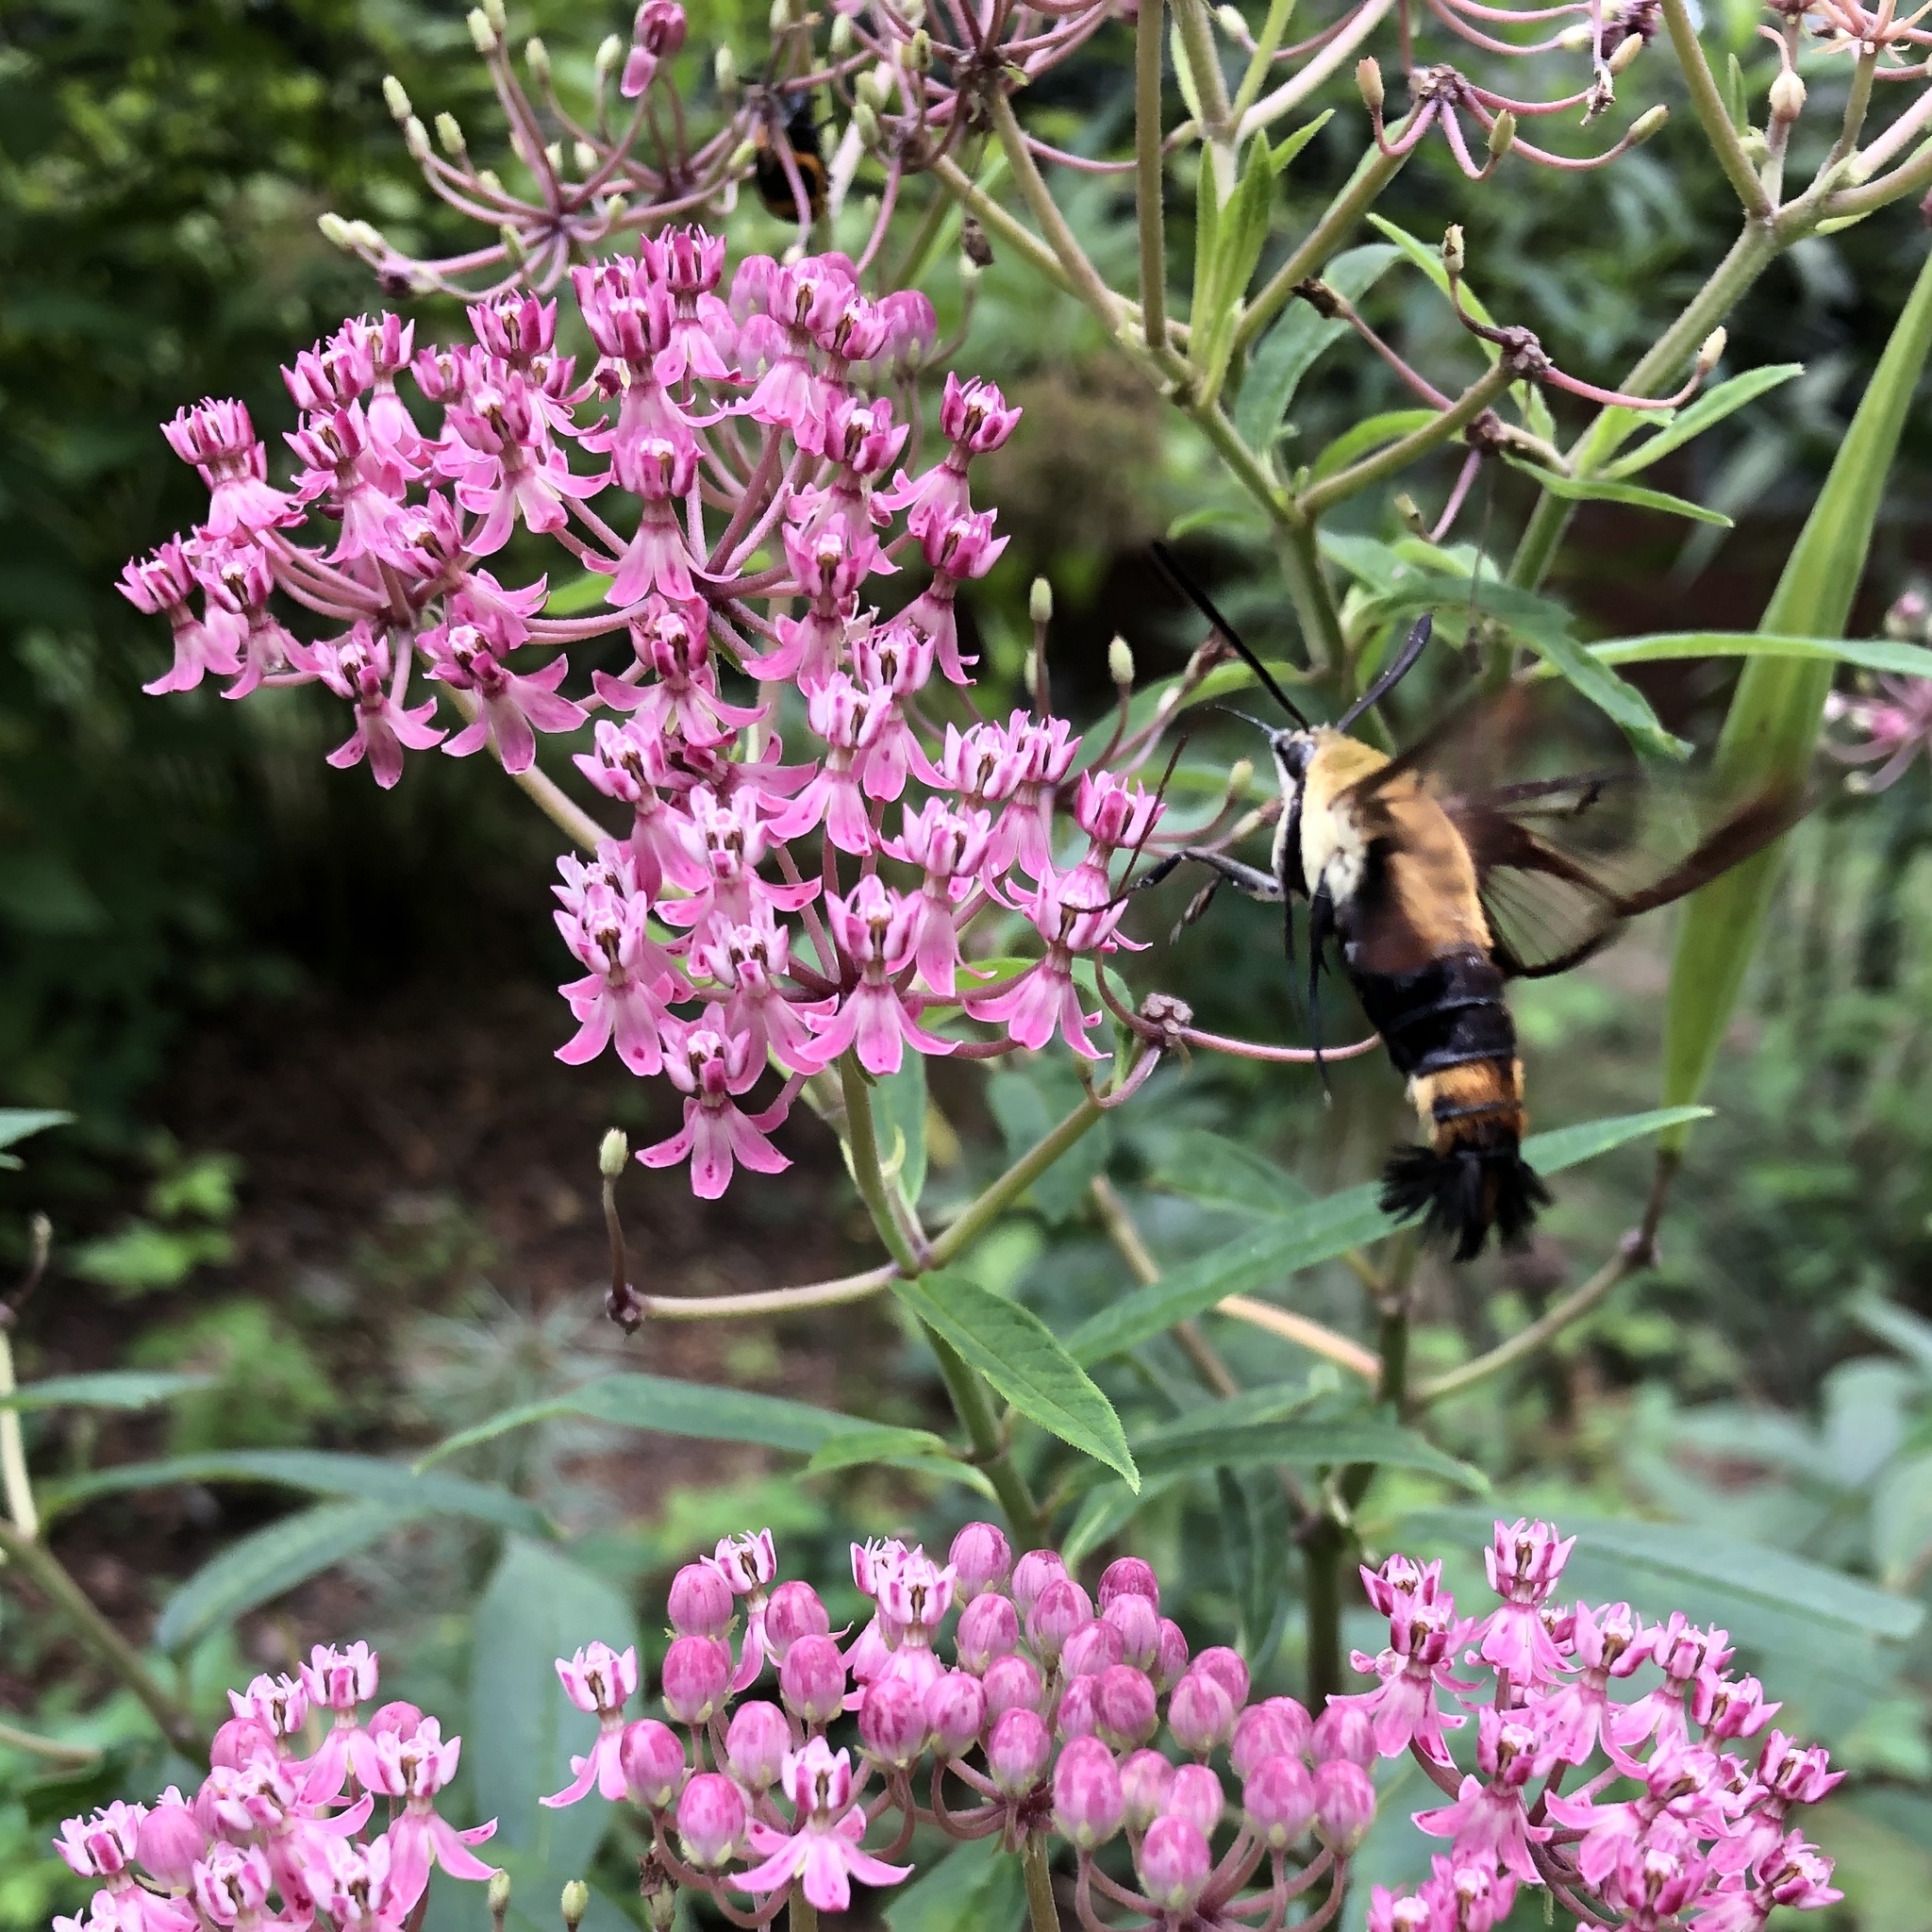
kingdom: Animalia
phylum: Arthropoda
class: Insecta
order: Lepidoptera
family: Sphingidae
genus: Hemaris
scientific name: Hemaris diffinis
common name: Bumblebee moth
